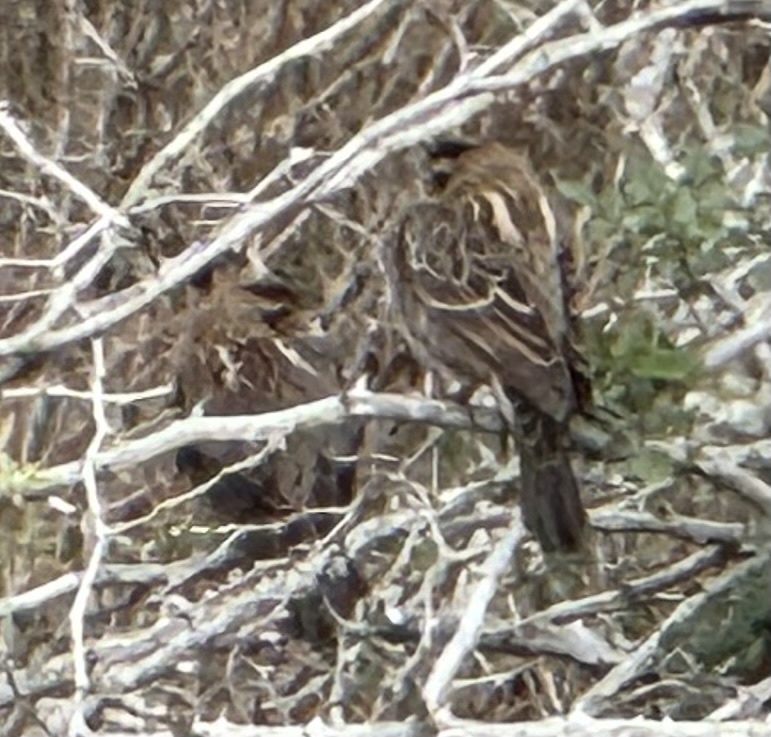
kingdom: Animalia
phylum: Chordata
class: Aves
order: Passeriformes
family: Icteridae
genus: Agelaius
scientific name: Agelaius phoeniceus
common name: Red-winged blackbird
